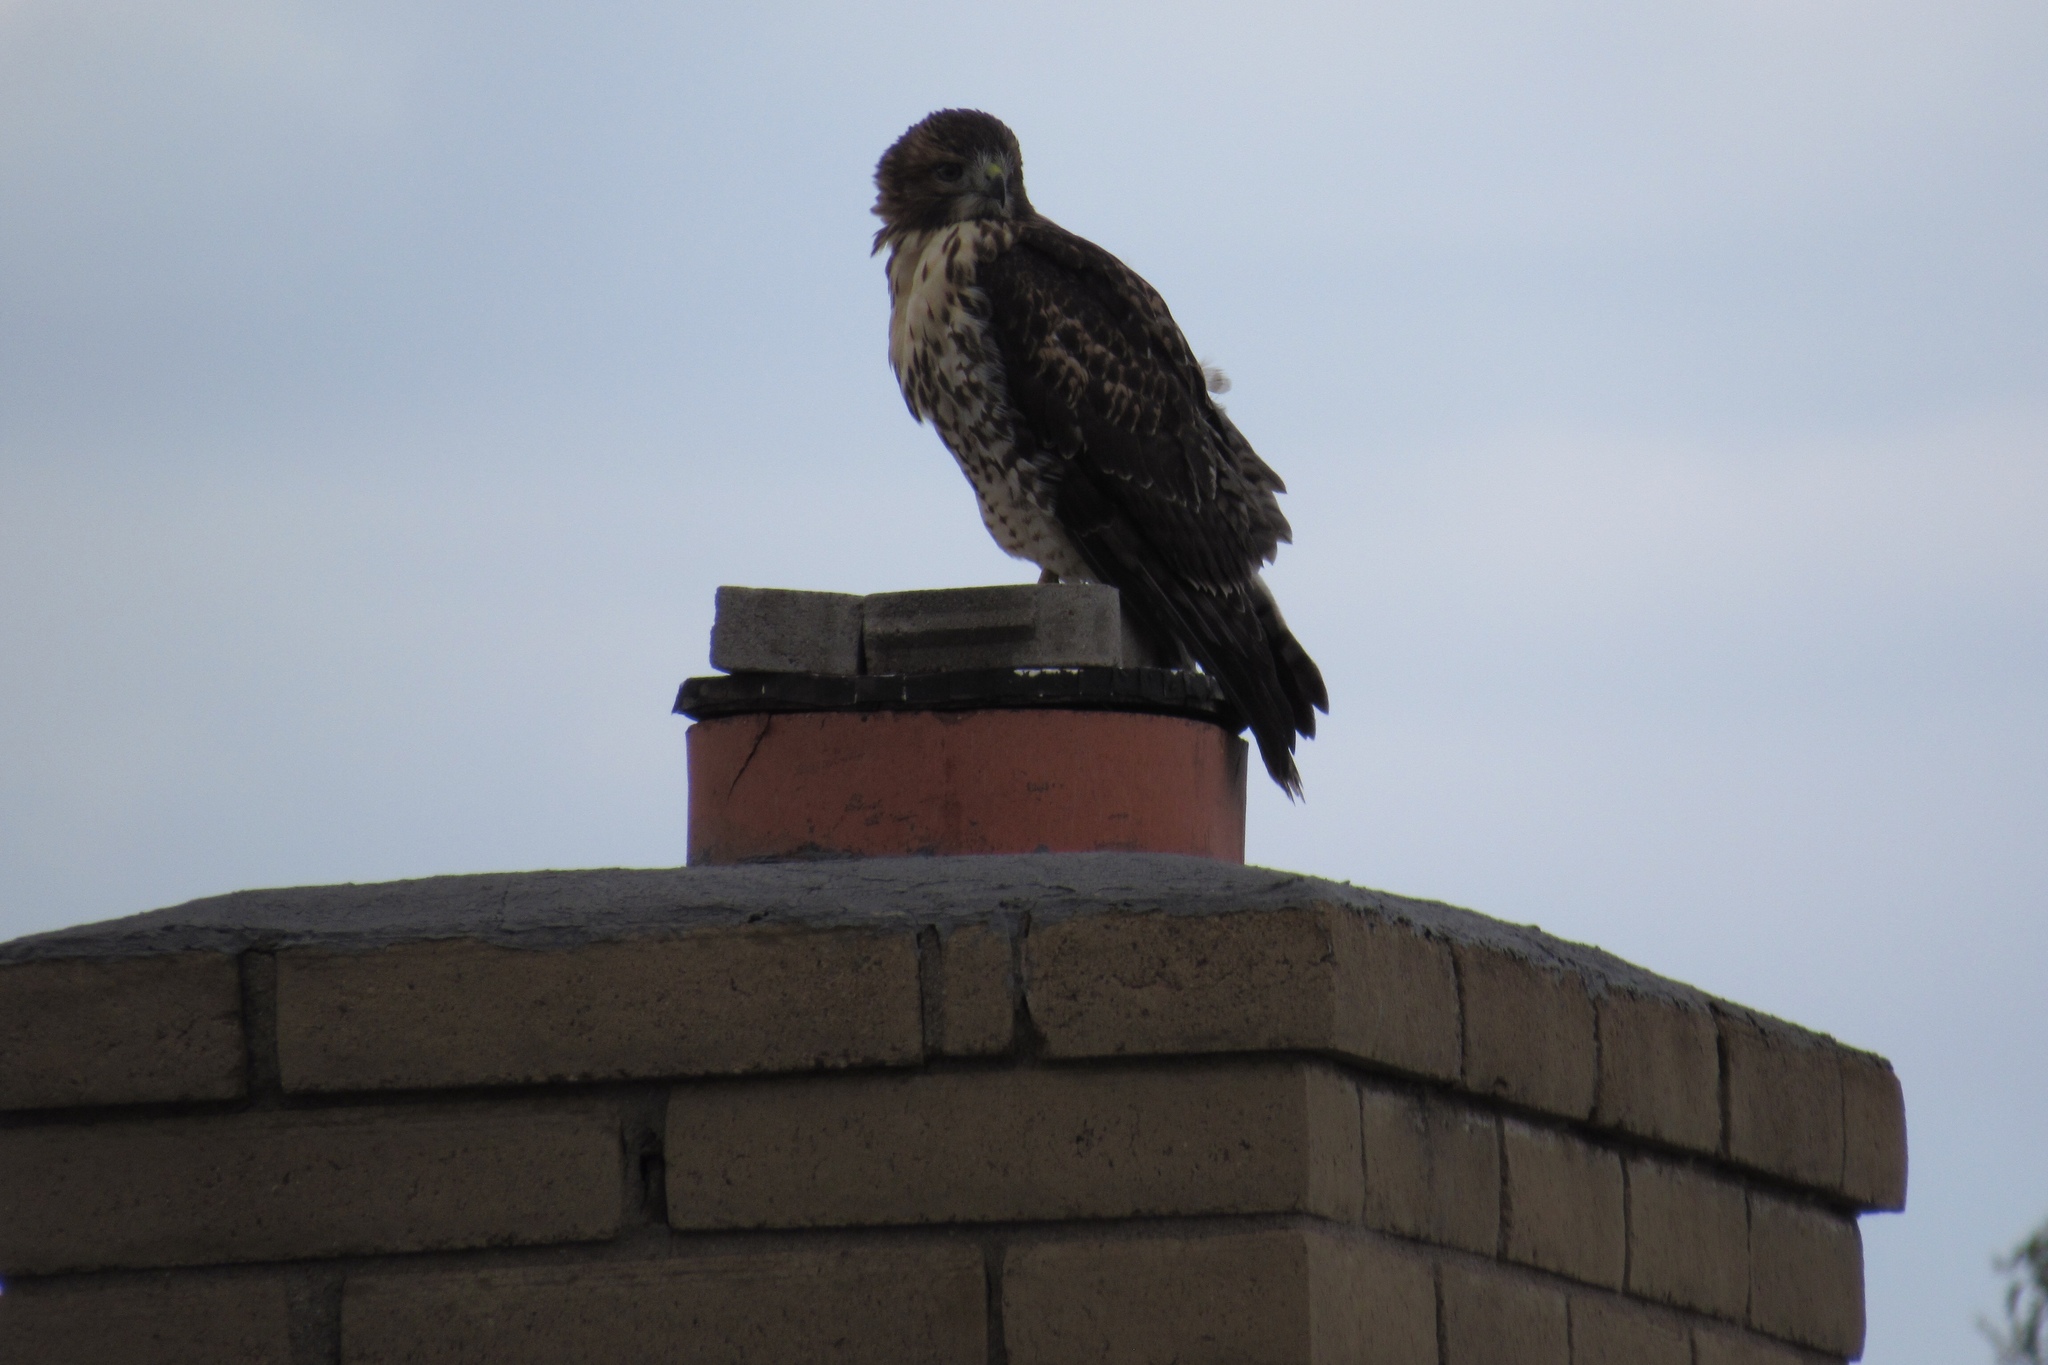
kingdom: Animalia
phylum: Chordata
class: Aves
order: Accipitriformes
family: Accipitridae
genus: Buteo
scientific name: Buteo jamaicensis
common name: Red-tailed hawk
